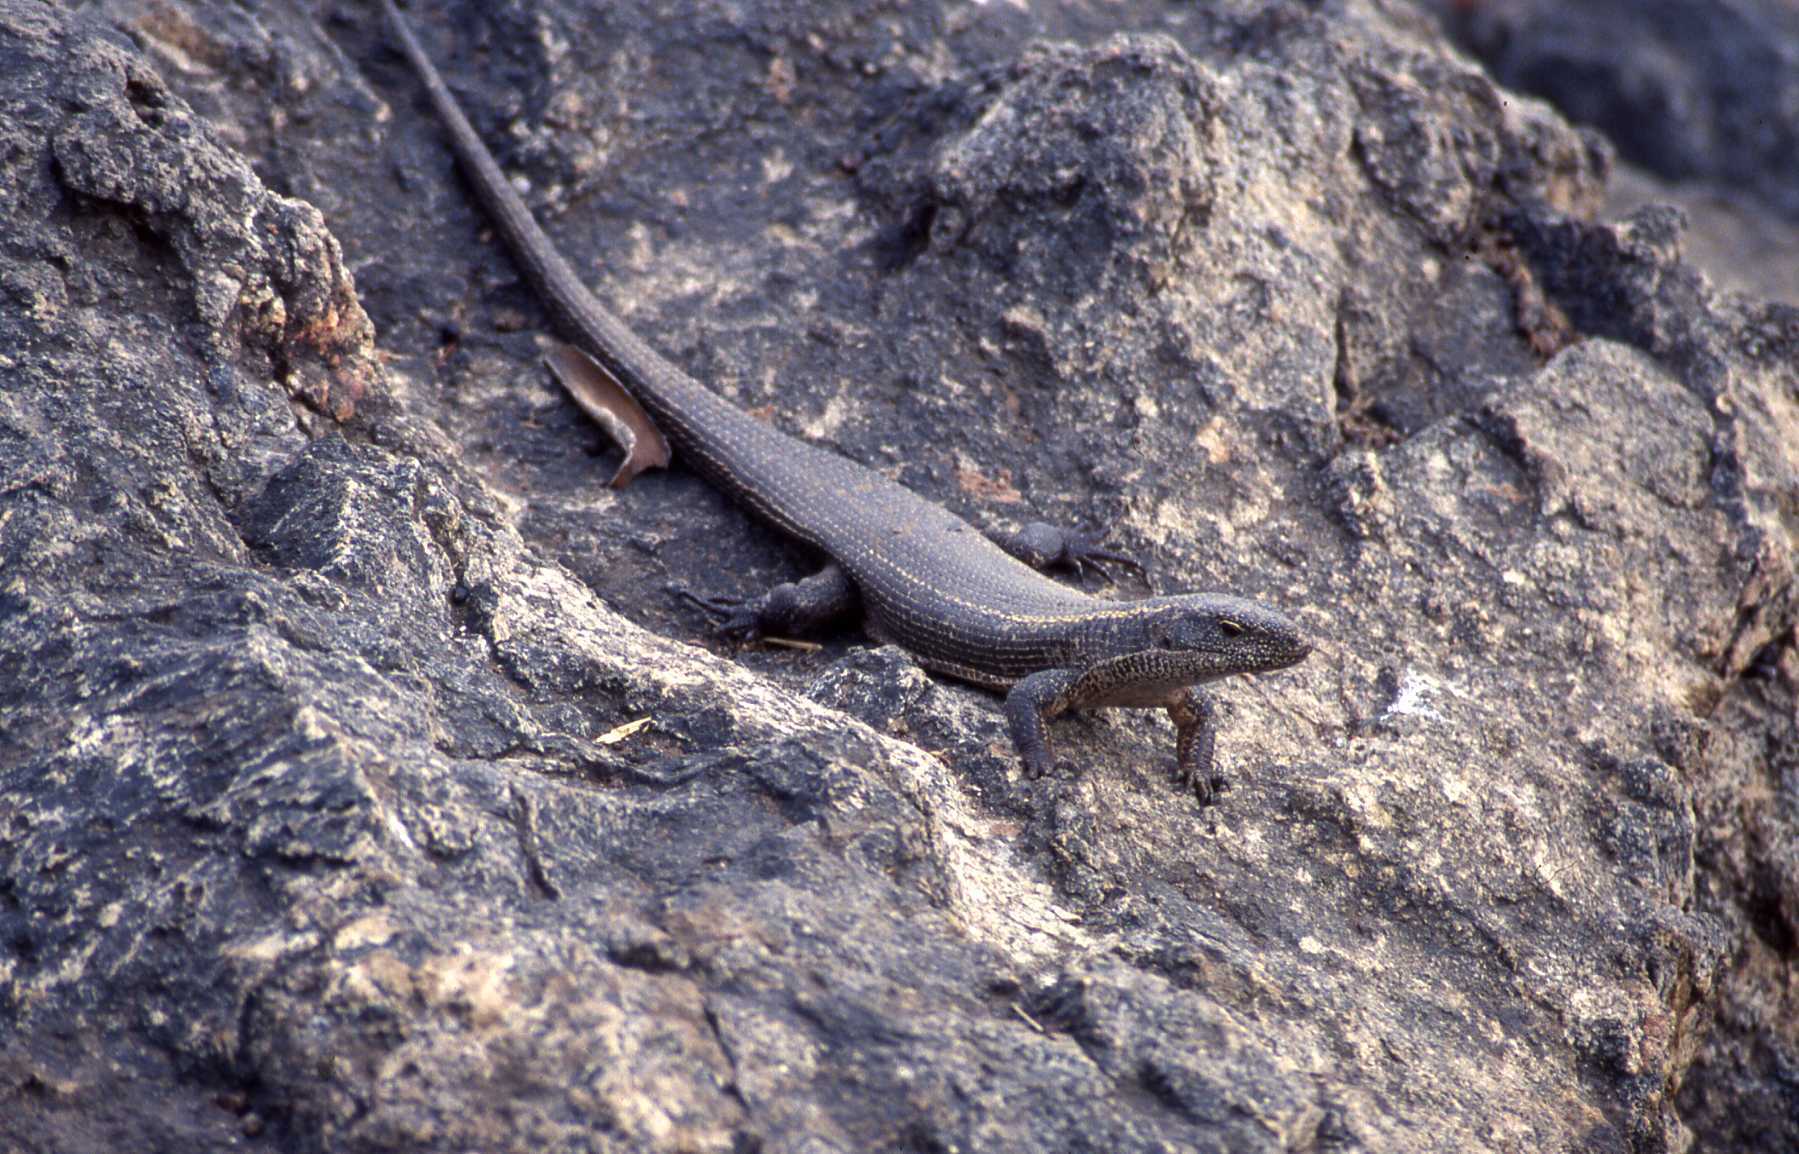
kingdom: Animalia
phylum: Chordata
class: Squamata
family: Gerrhosauridae
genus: Matobosaurus
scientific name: Matobosaurus validus
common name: Common giant plated lizard
